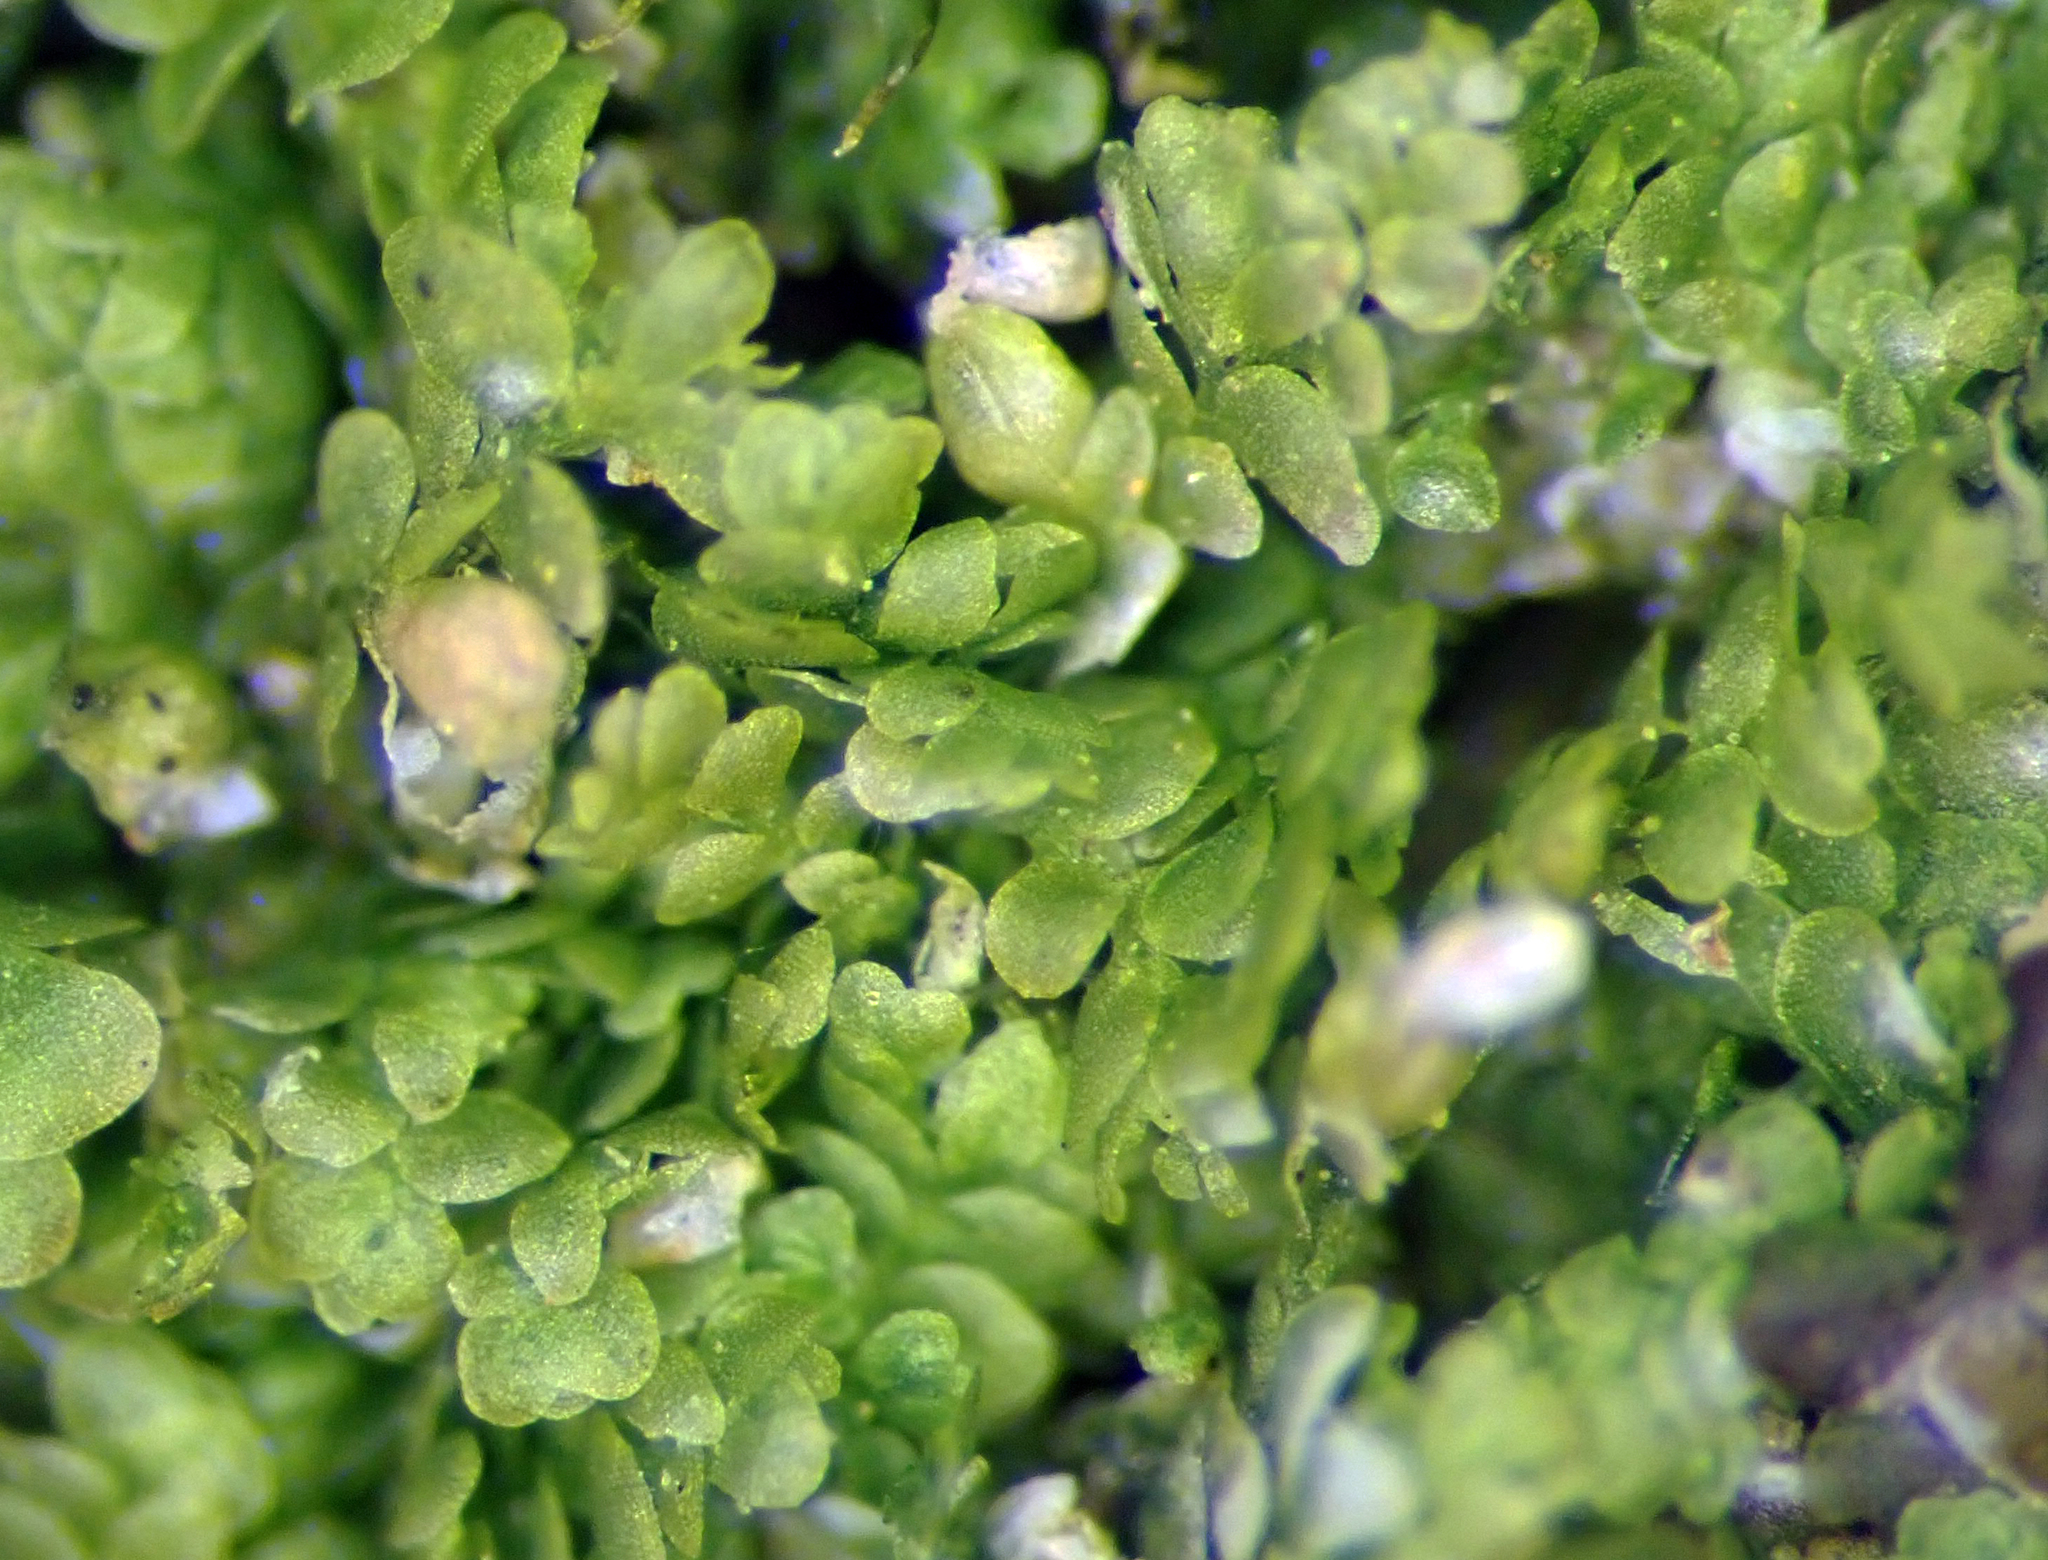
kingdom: Plantae
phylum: Marchantiophyta
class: Jungermanniopsida
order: Porellales
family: Lejeuneaceae
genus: Lejeunea
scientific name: Lejeunea oracola
